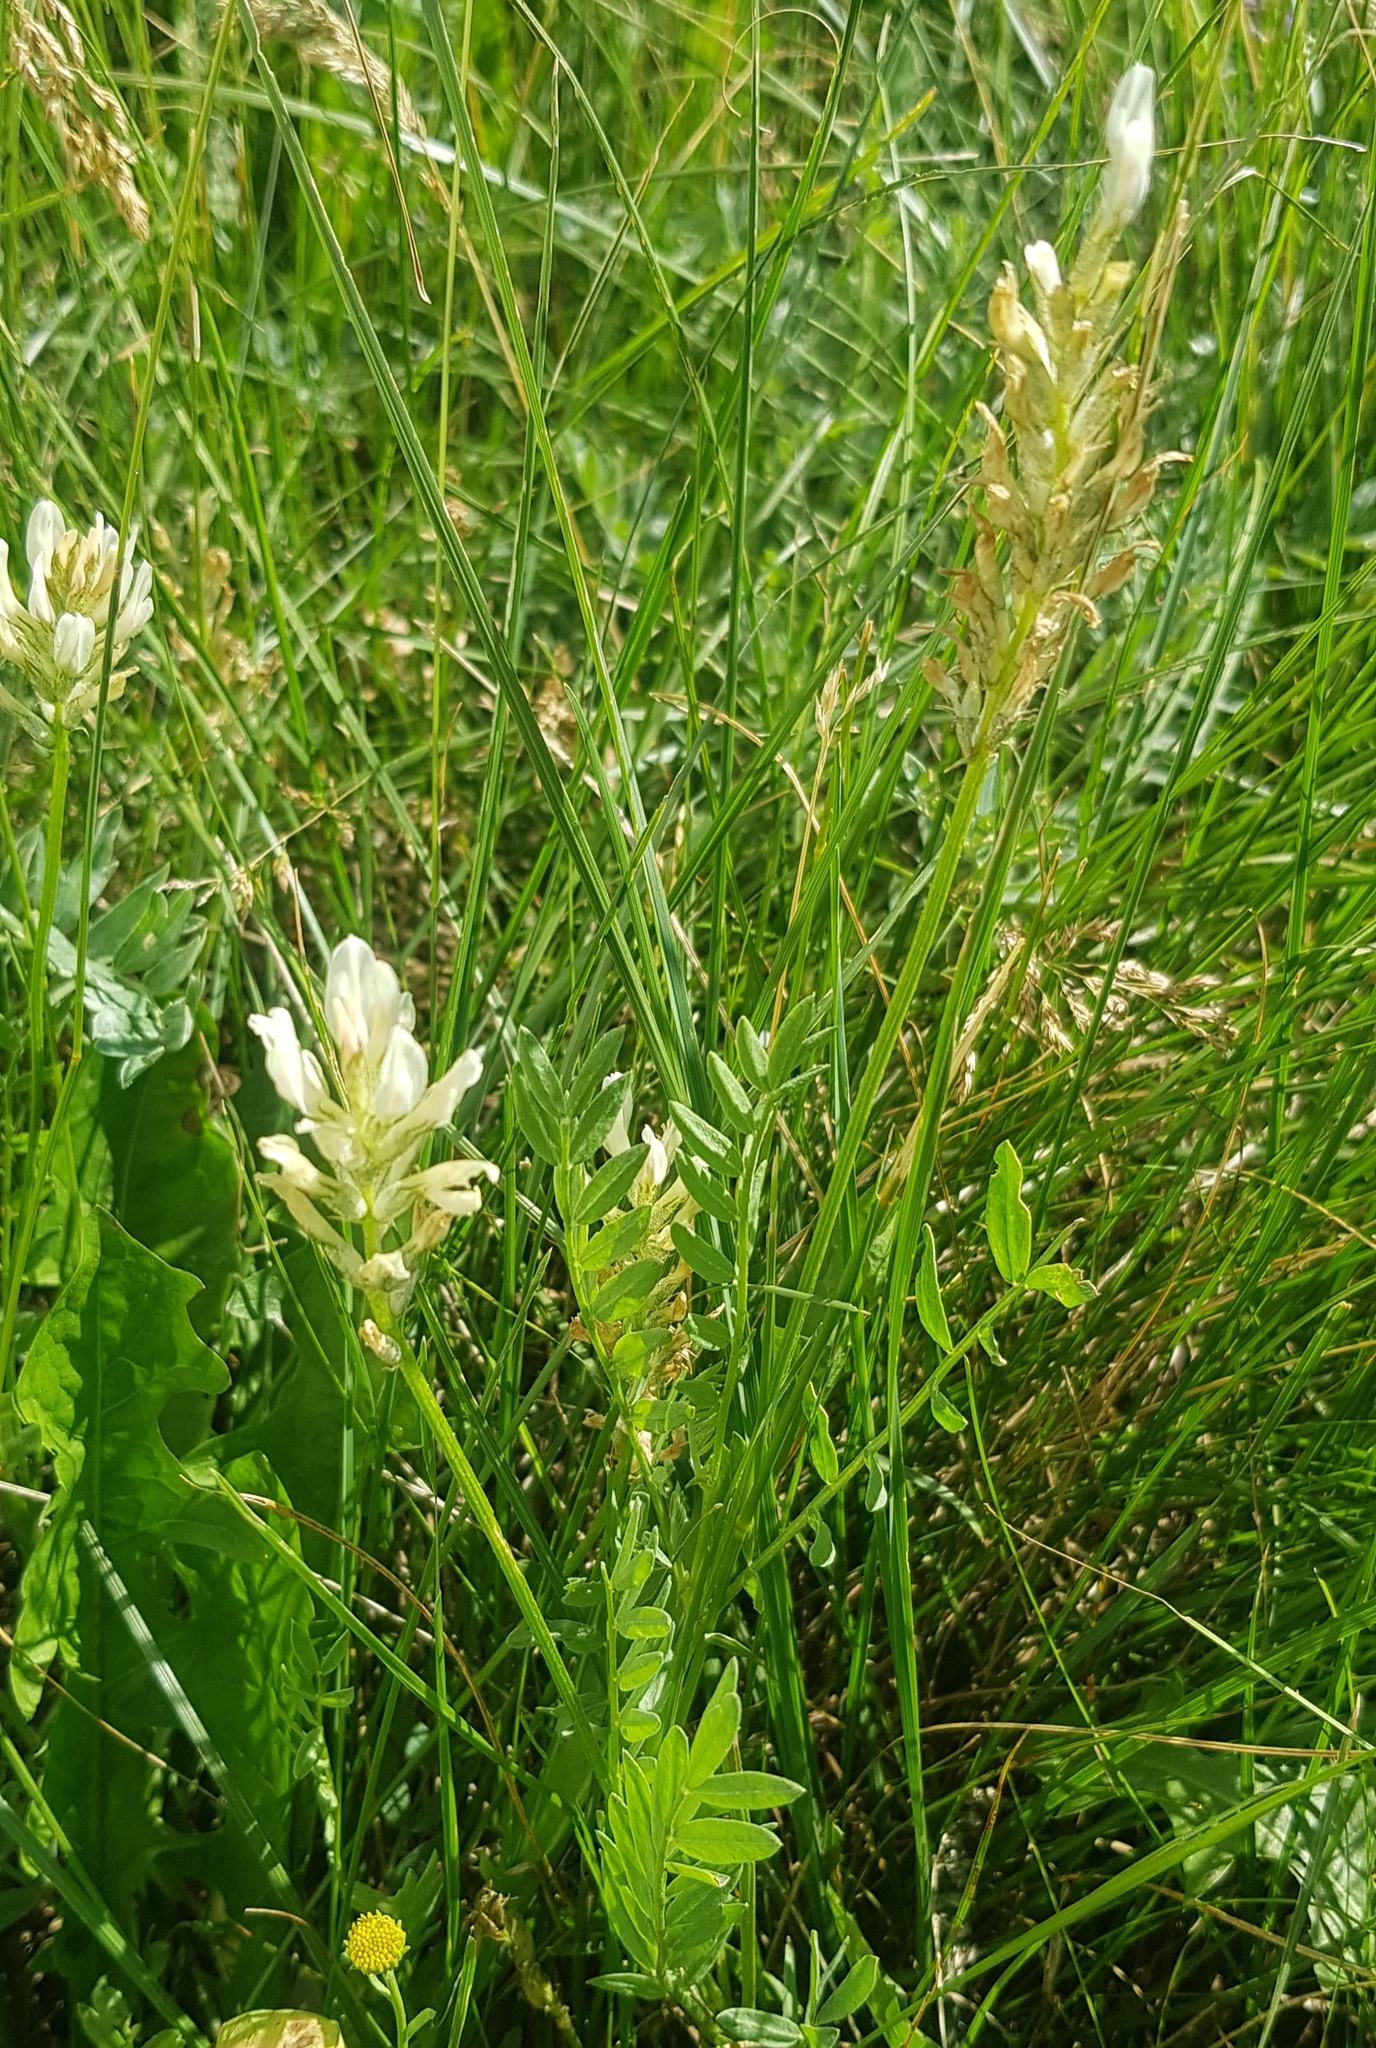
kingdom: Plantae
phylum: Tracheophyta
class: Magnoliopsida
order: Fabales
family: Fabaceae
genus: Astragalus
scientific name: Astragalus laxmannii
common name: Laxmann's milk-vetch
